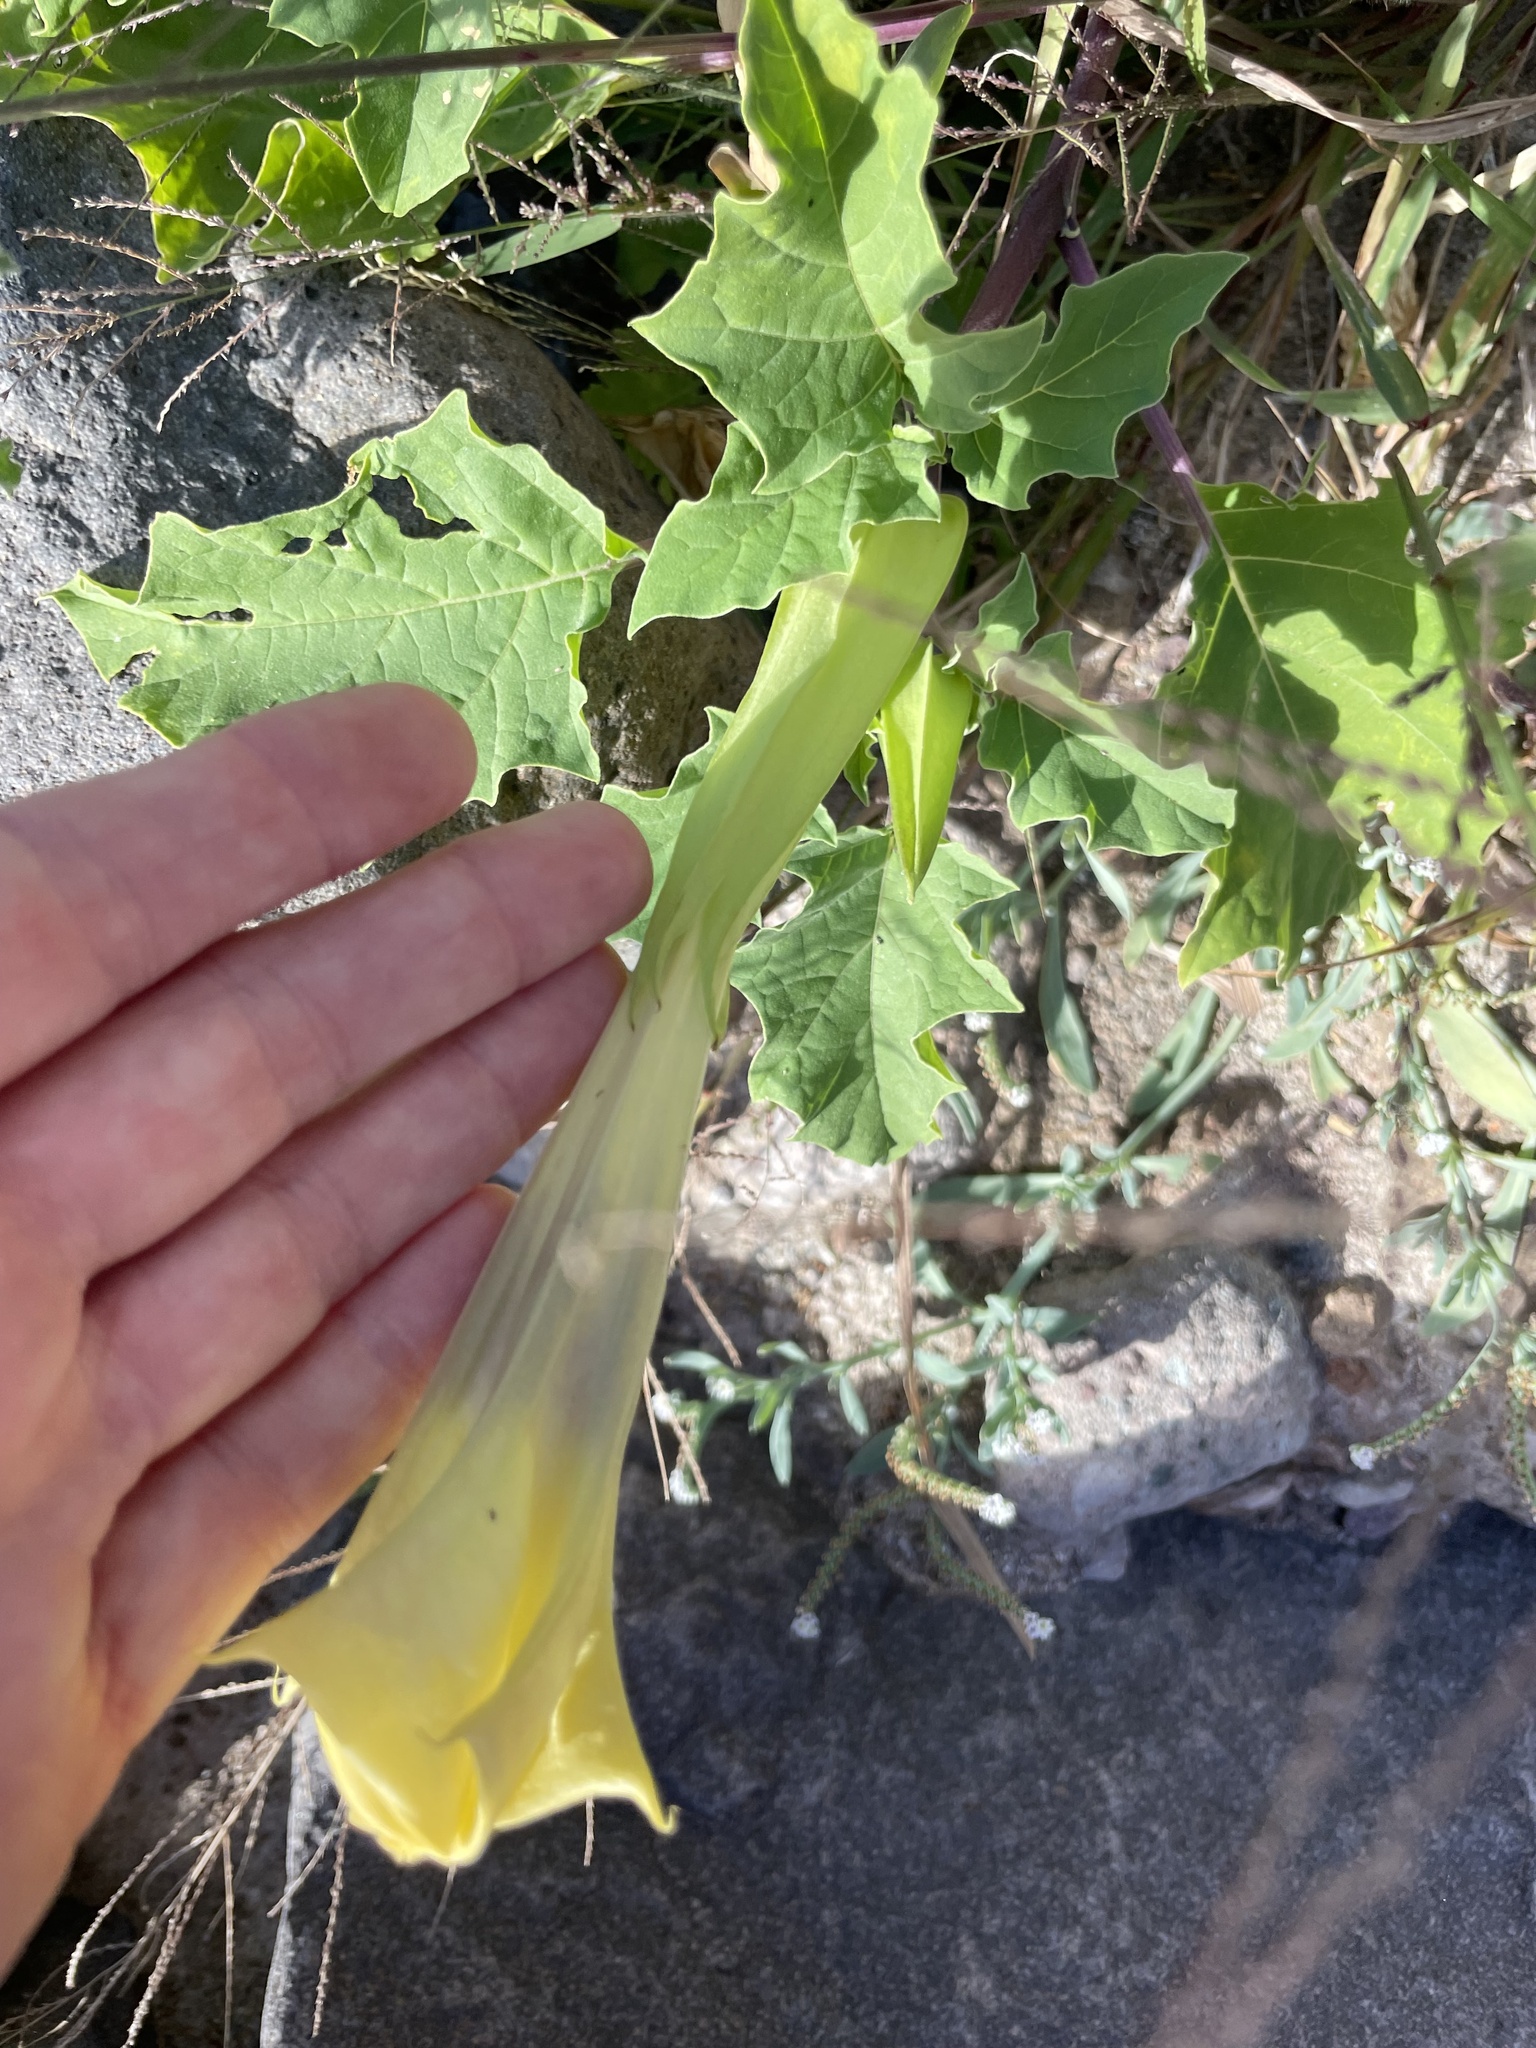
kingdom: Plantae
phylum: Tracheophyta
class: Magnoliopsida
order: Solanales
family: Solanaceae
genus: Datura
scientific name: Datura discolor
